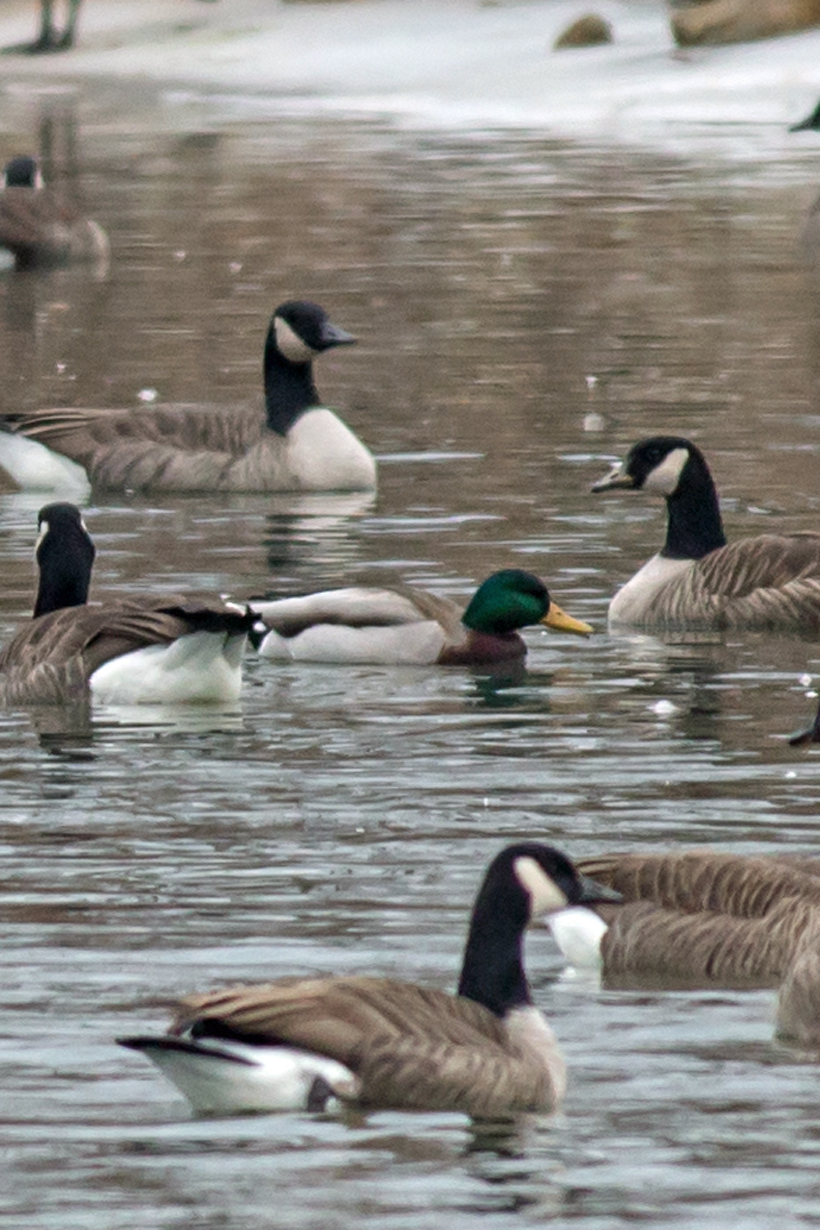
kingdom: Animalia
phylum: Chordata
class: Aves
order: Anseriformes
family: Anatidae
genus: Anas
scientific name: Anas platyrhynchos
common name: Mallard
